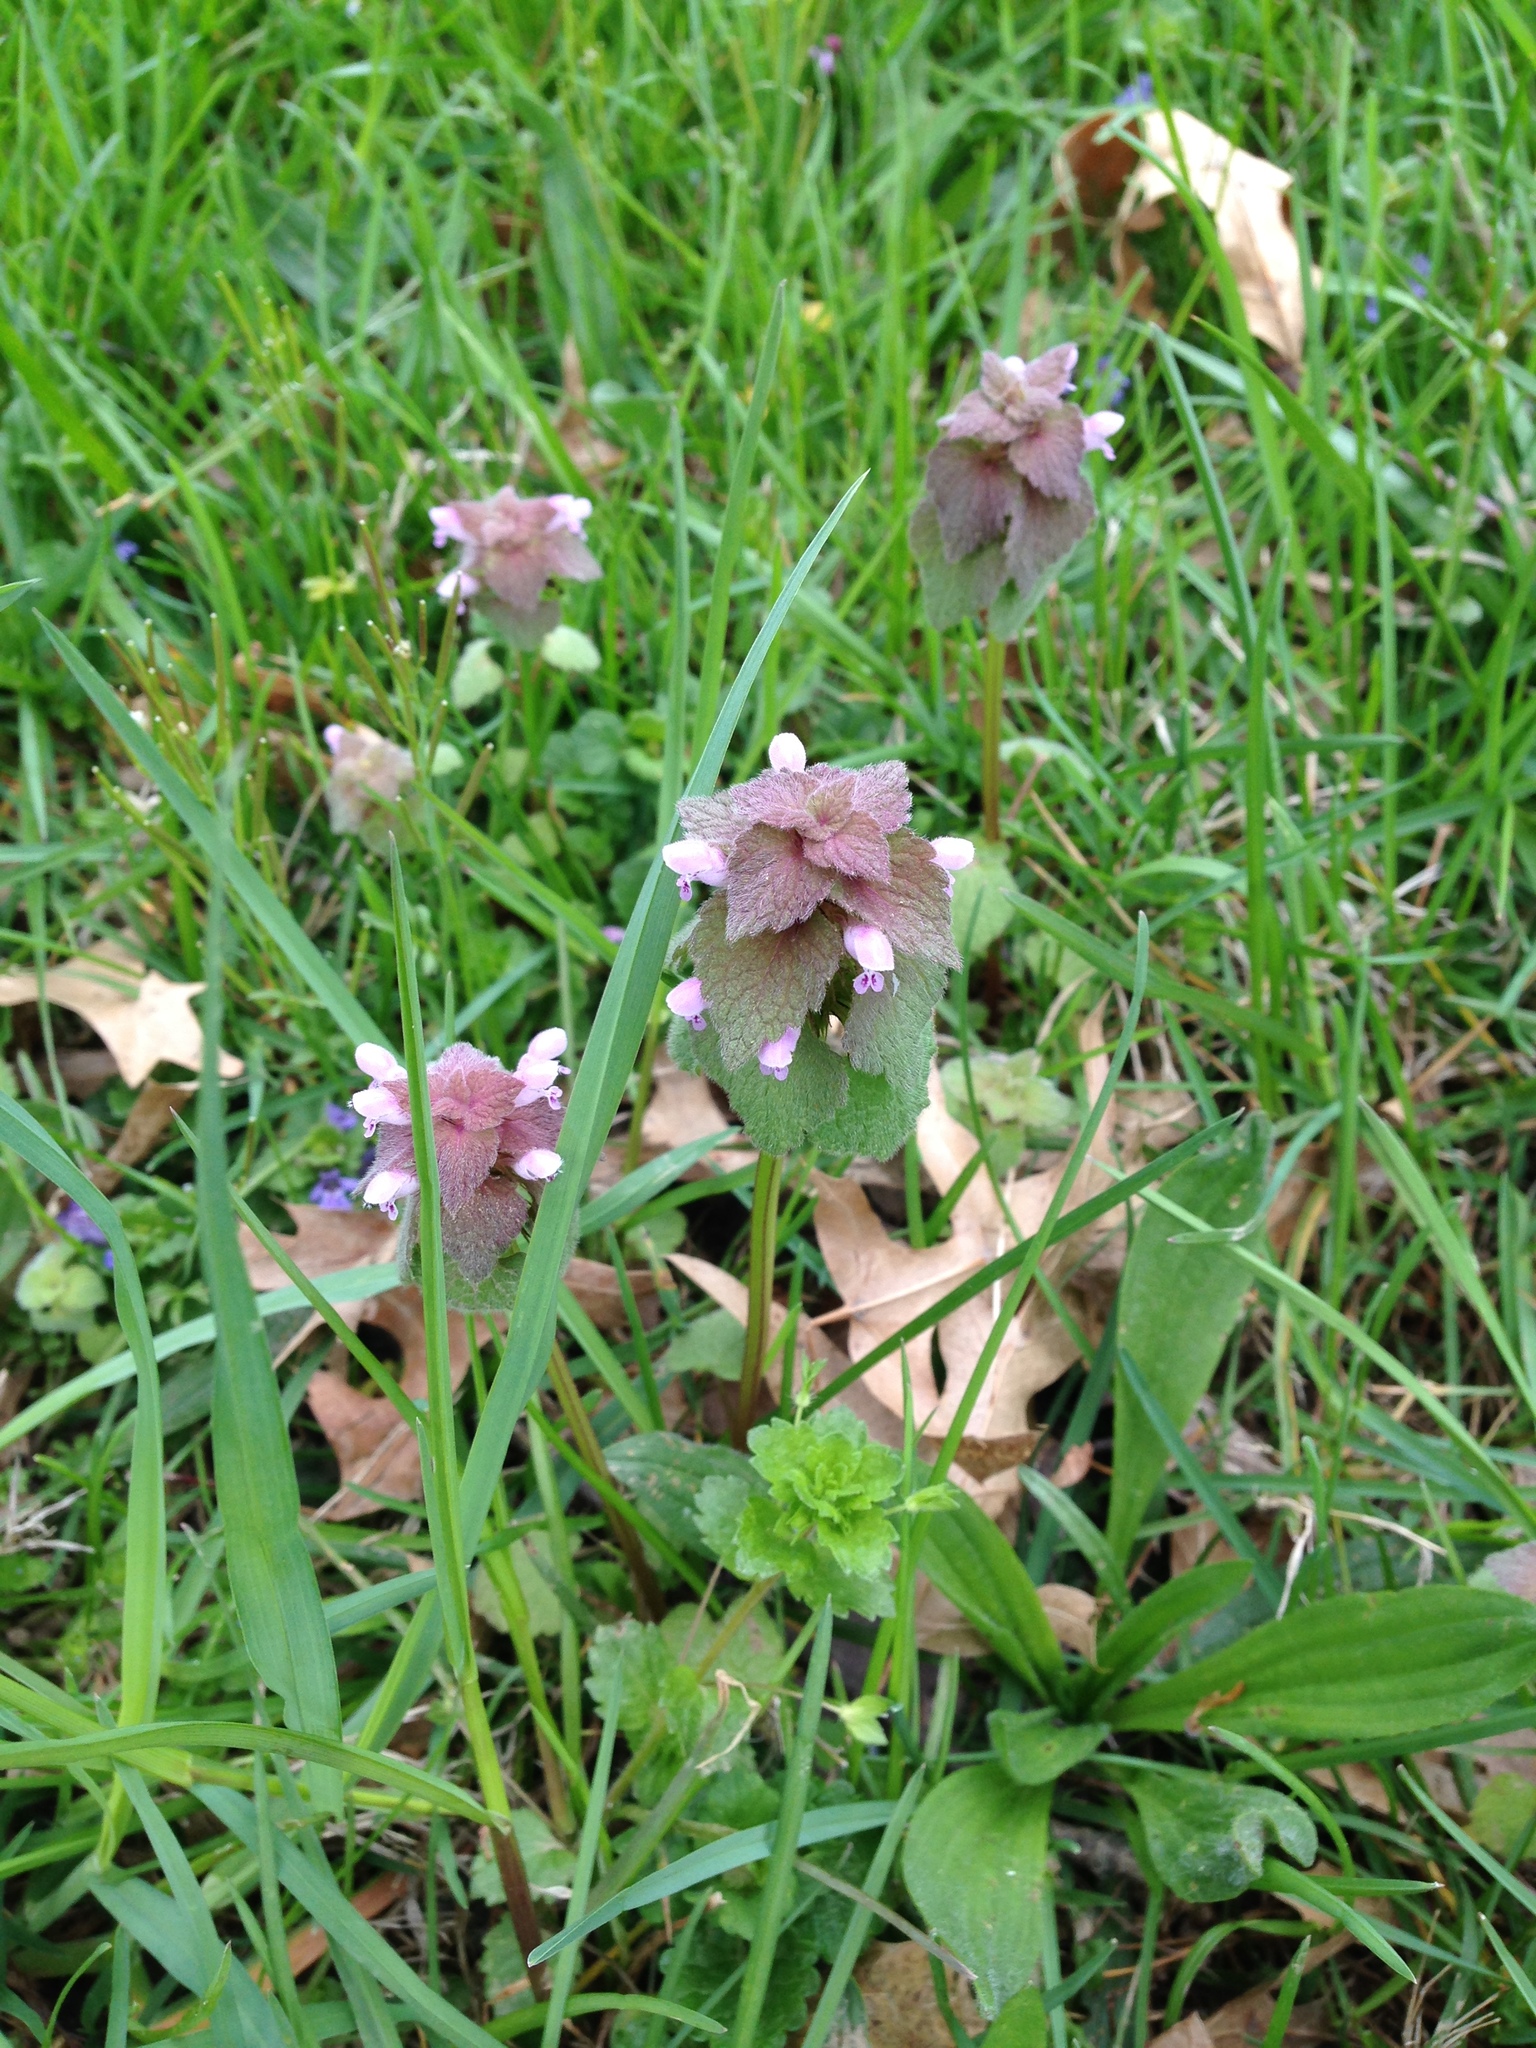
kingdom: Plantae
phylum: Tracheophyta
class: Magnoliopsida
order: Lamiales
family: Lamiaceae
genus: Lamium
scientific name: Lamium purpureum
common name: Red dead-nettle
